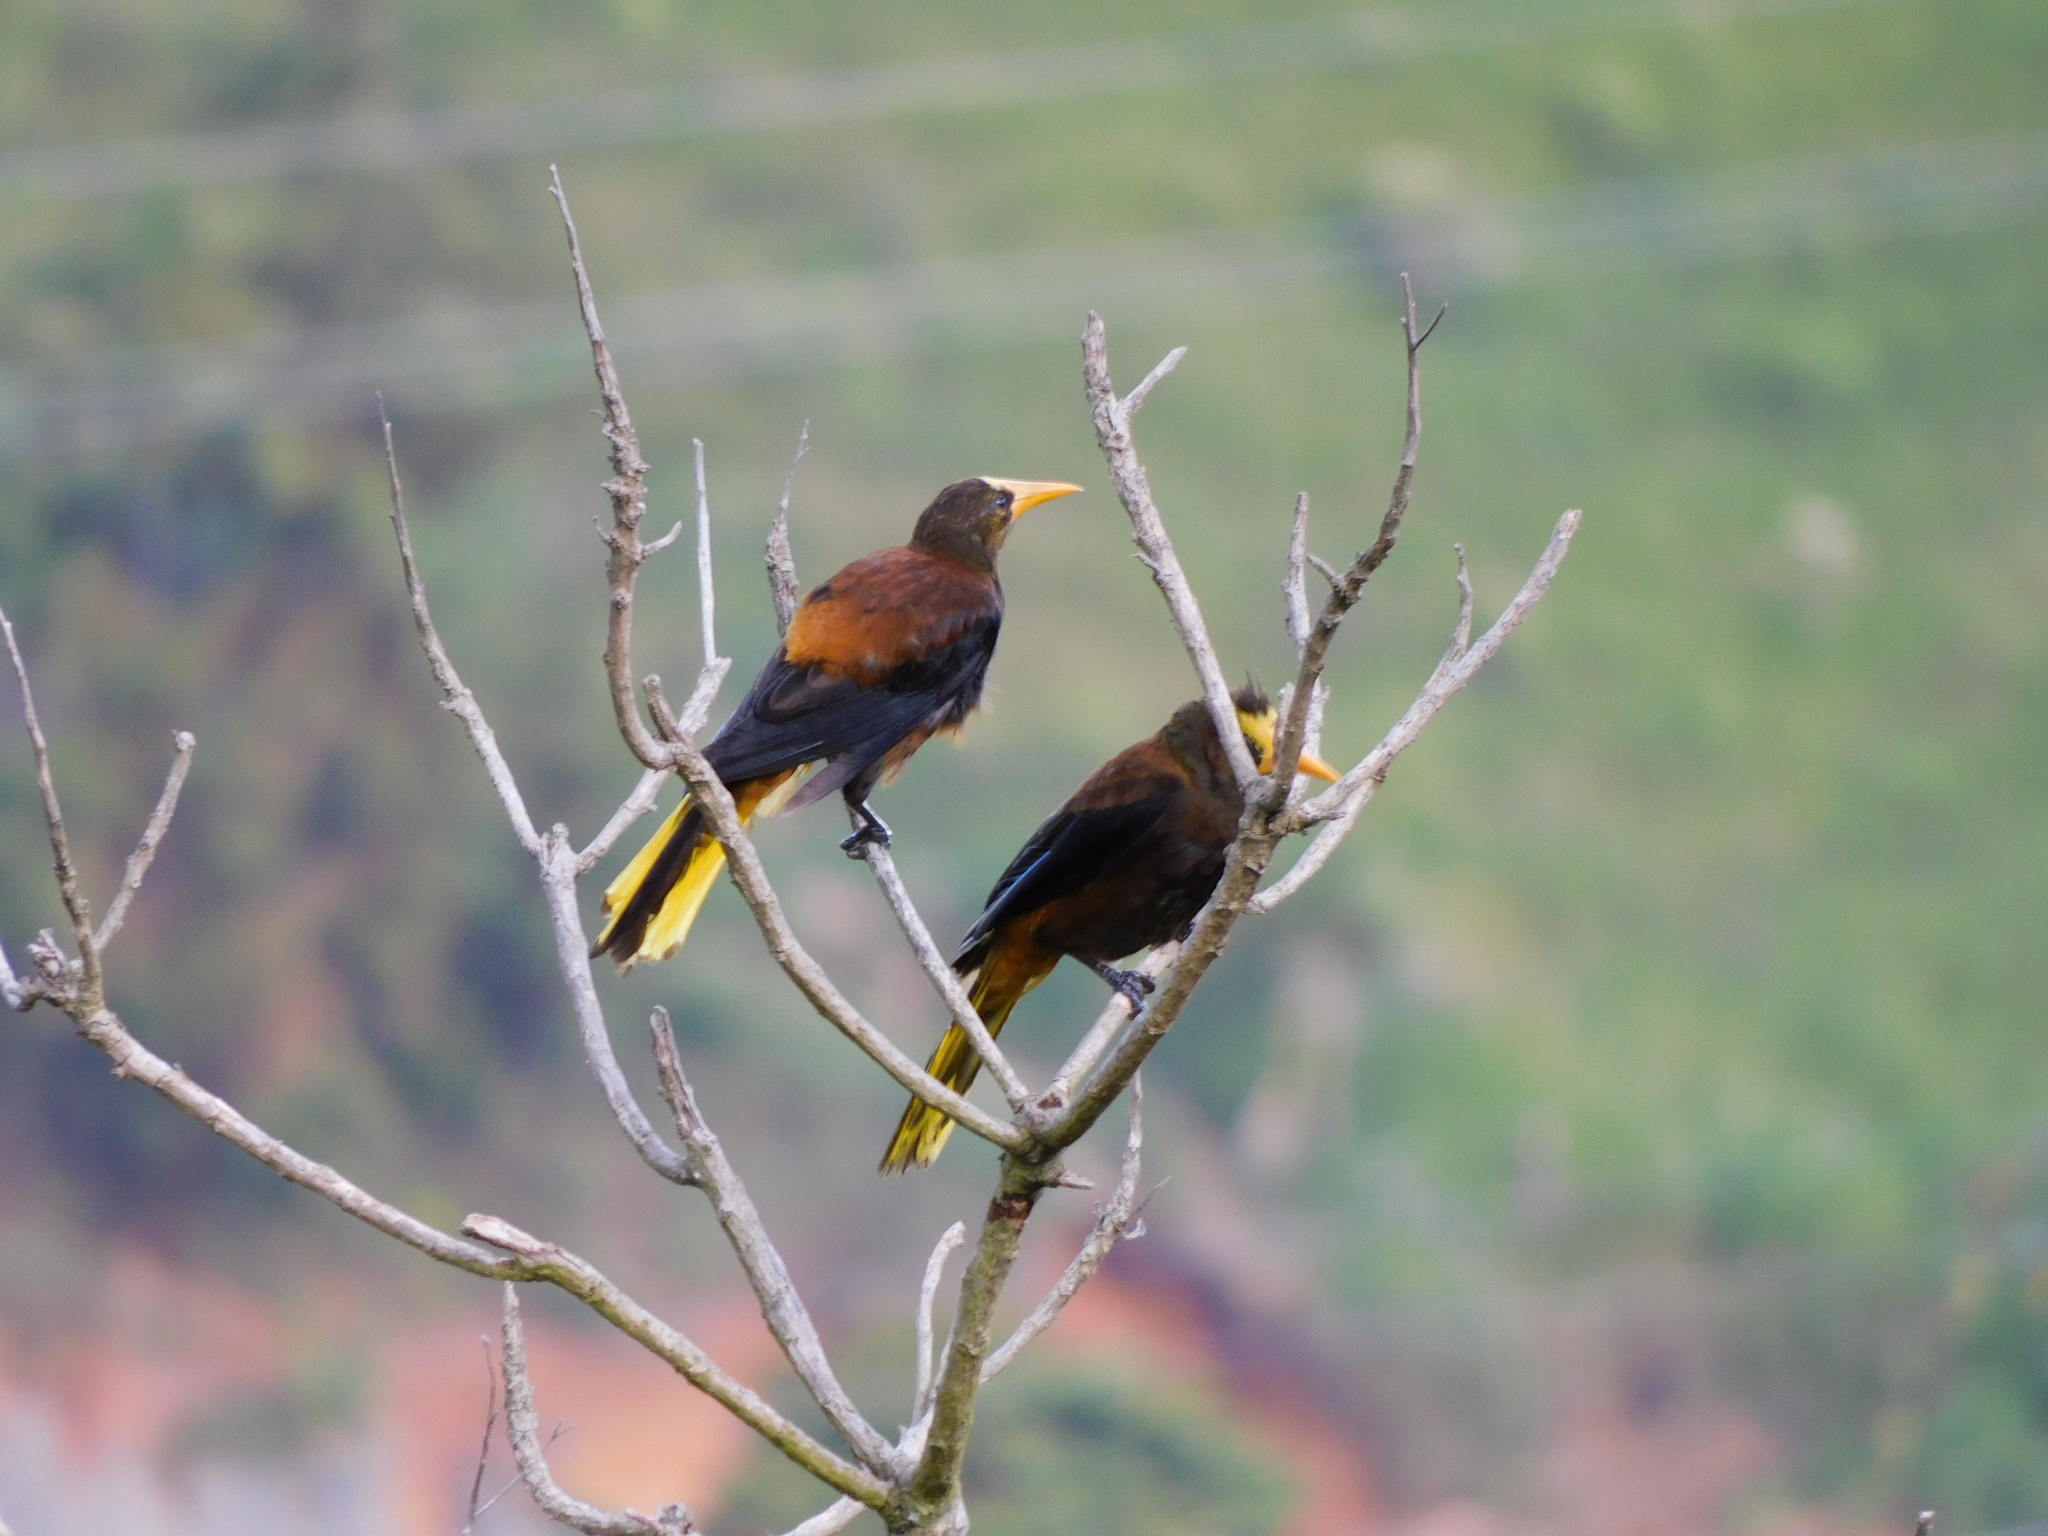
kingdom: Animalia
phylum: Chordata
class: Aves
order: Passeriformes
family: Icteridae
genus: Psarocolius
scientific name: Psarocolius angustifrons
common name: Russet-backed oropendola
